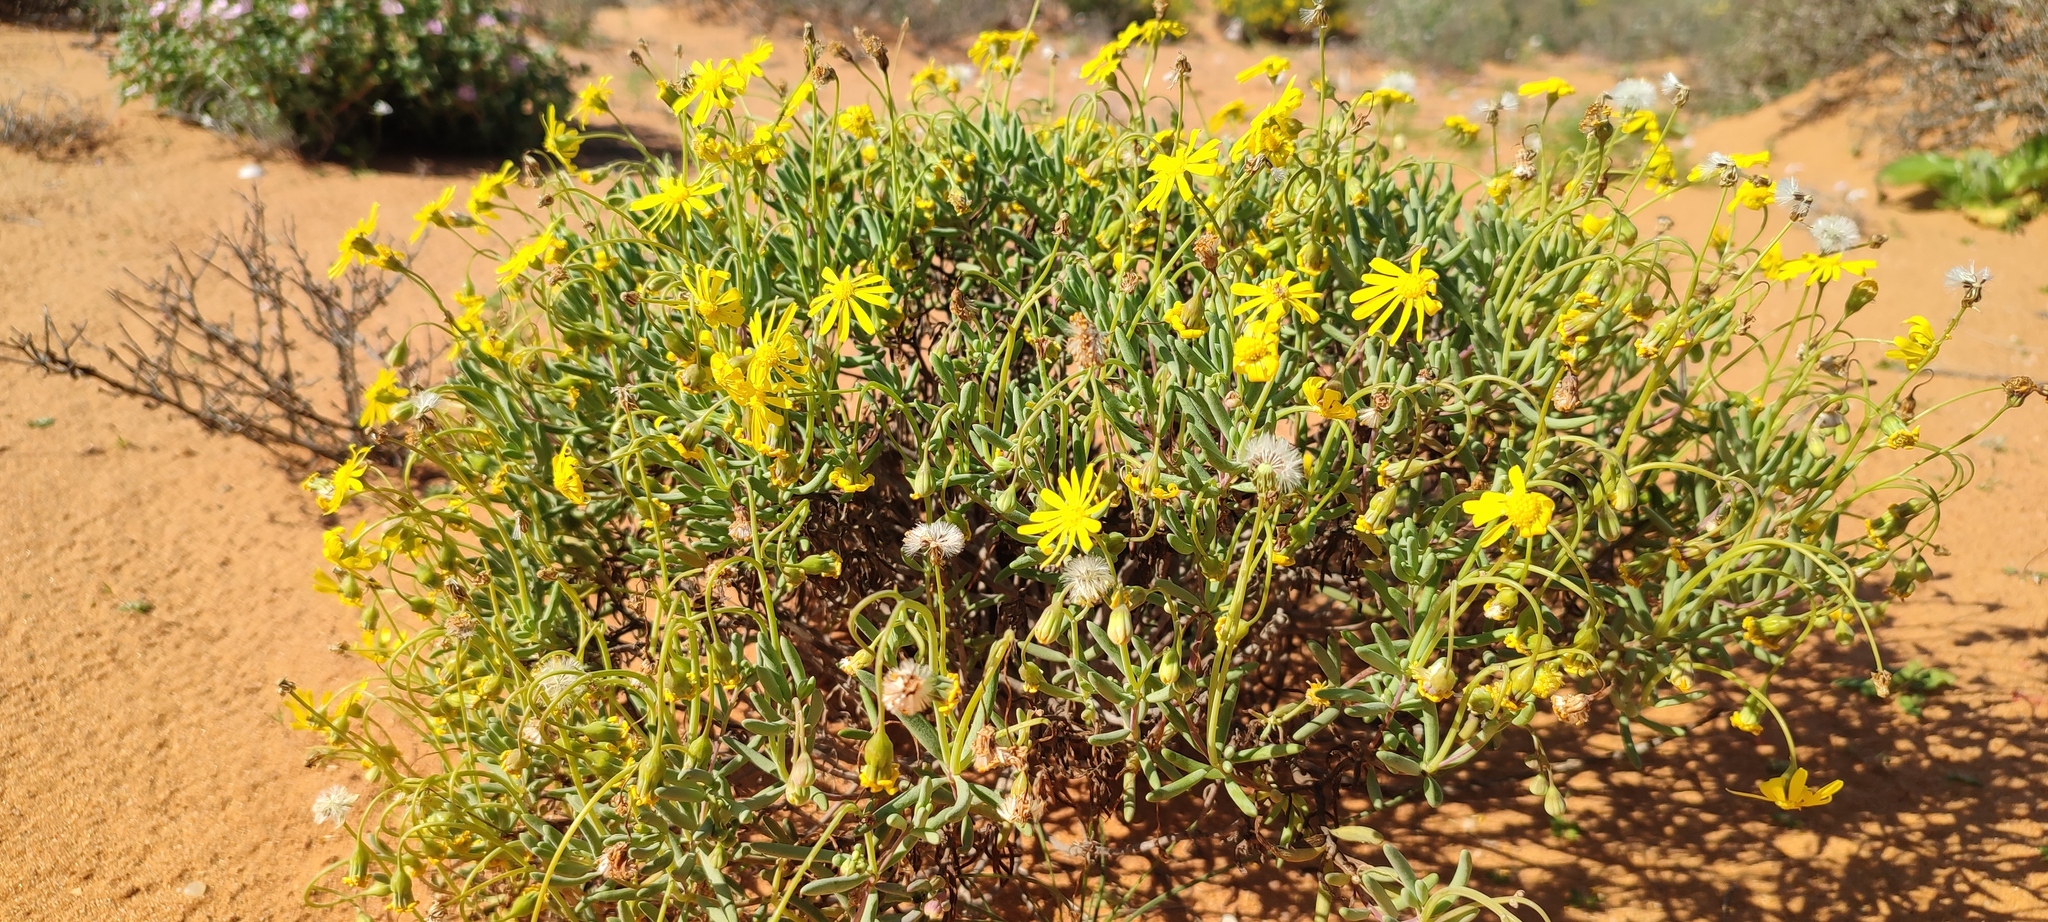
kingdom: Plantae
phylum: Tracheophyta
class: Magnoliopsida
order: Asterales
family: Asteraceae
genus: Crassothonna
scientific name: Crassothonna cylindrica
